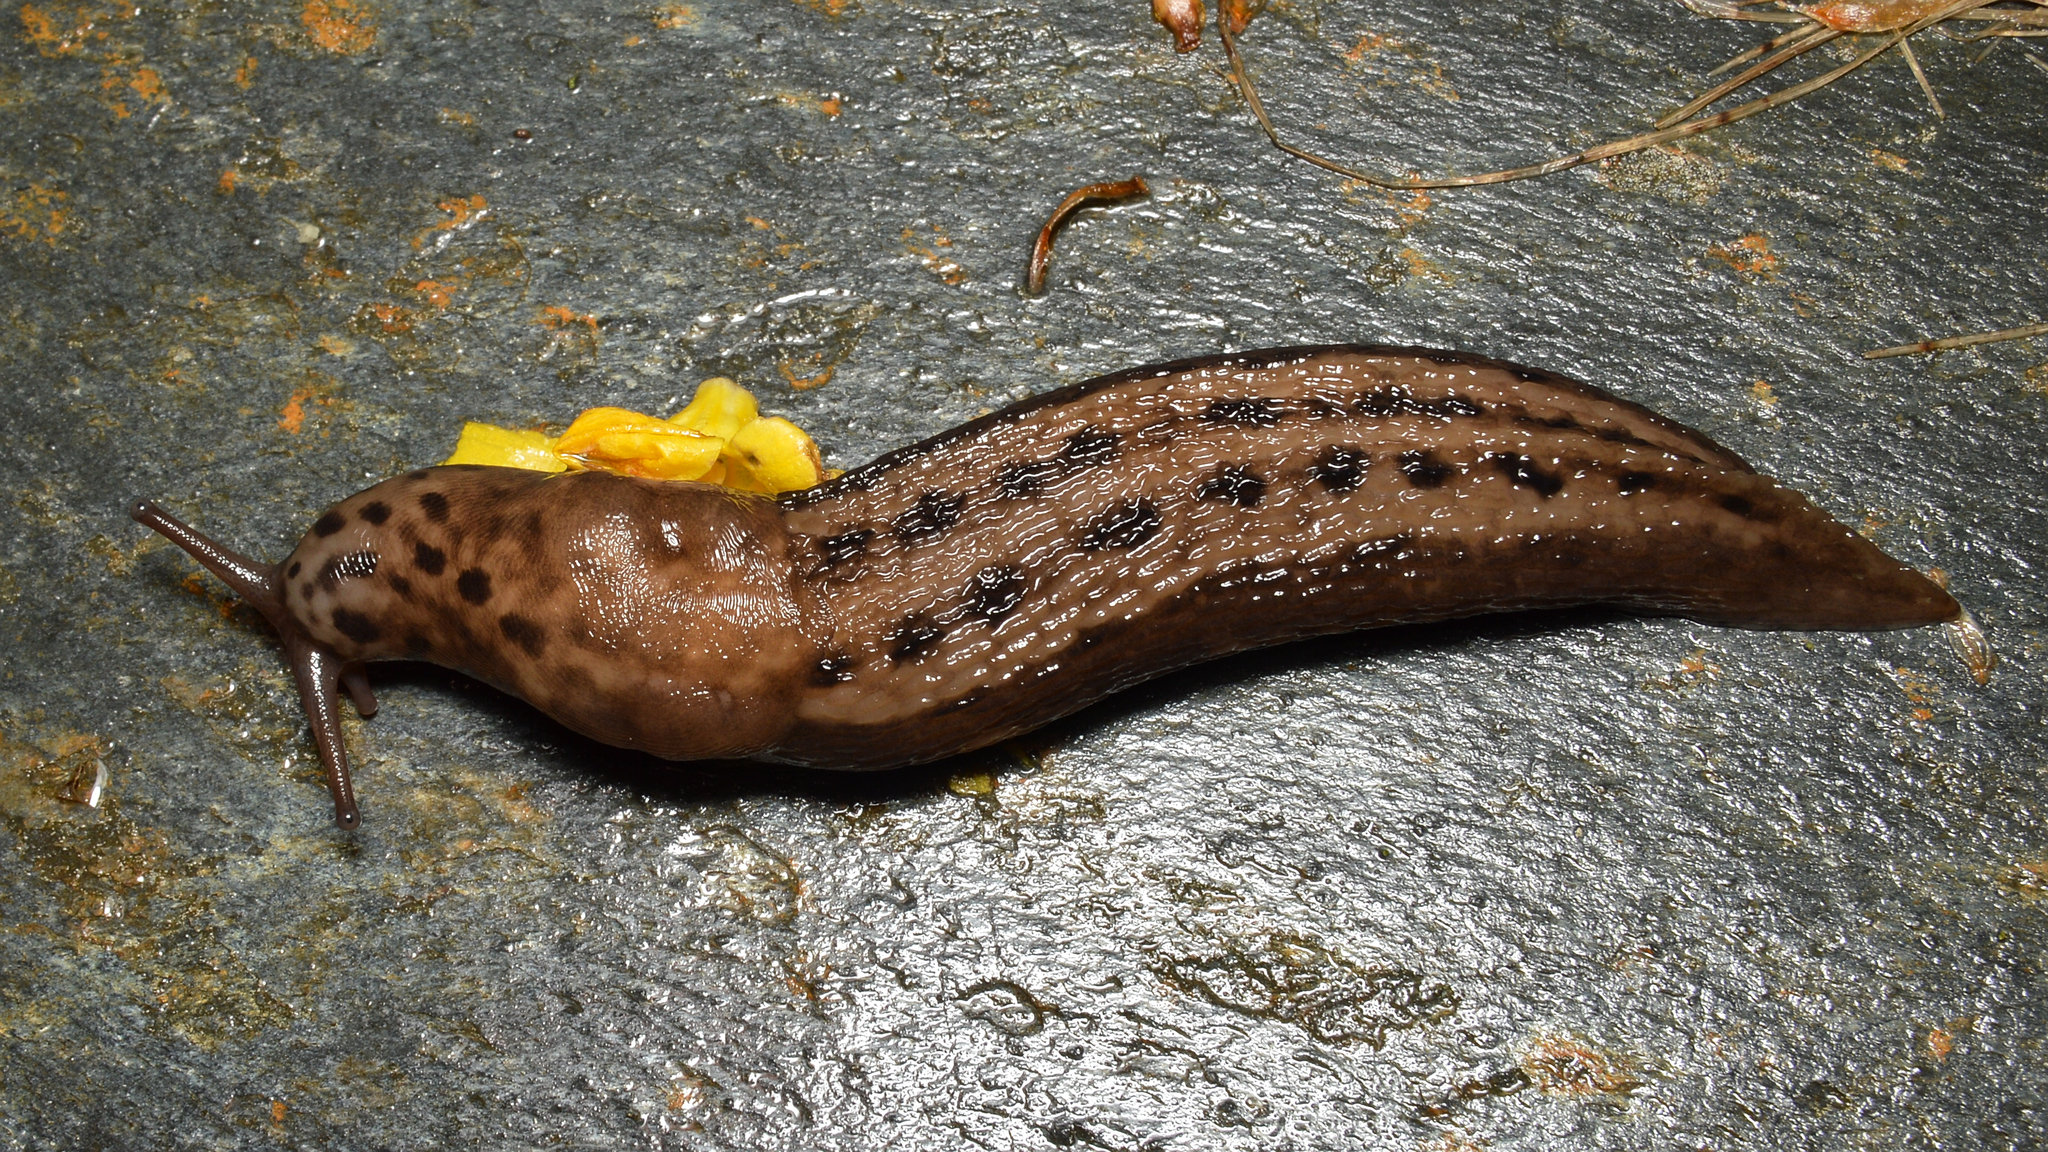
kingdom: Animalia
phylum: Mollusca
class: Gastropoda
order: Stylommatophora
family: Limacidae
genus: Limax
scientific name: Limax maximus
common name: Great grey slug
